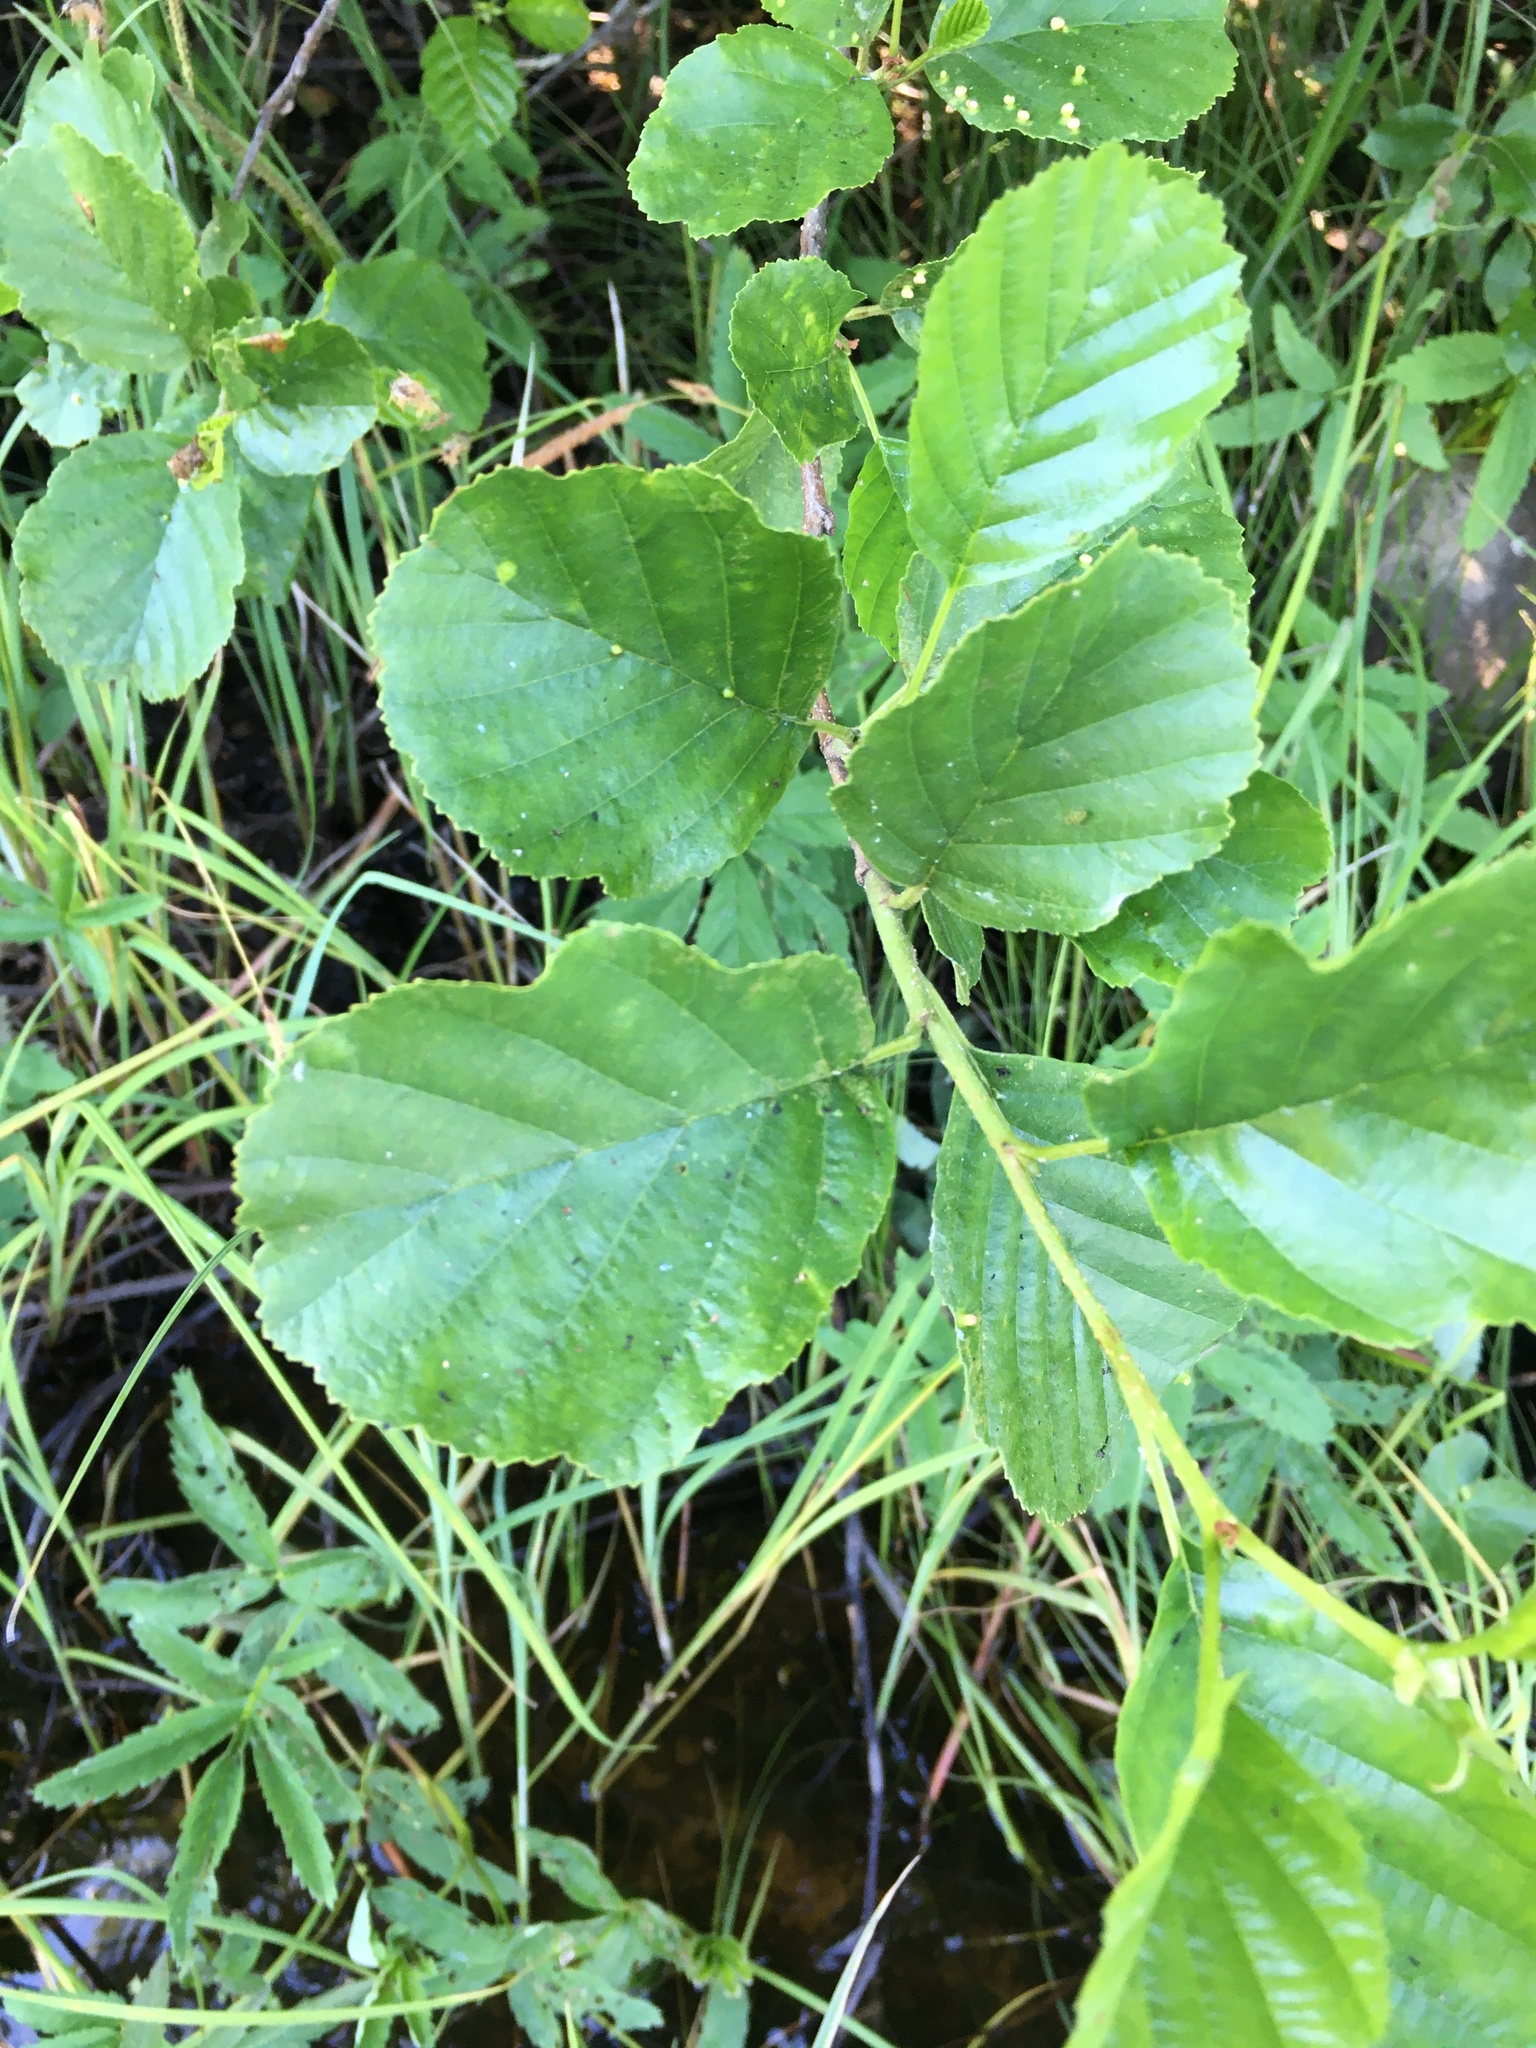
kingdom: Plantae
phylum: Tracheophyta
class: Magnoliopsida
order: Fagales
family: Betulaceae
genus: Alnus
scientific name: Alnus glutinosa
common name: Black alder
